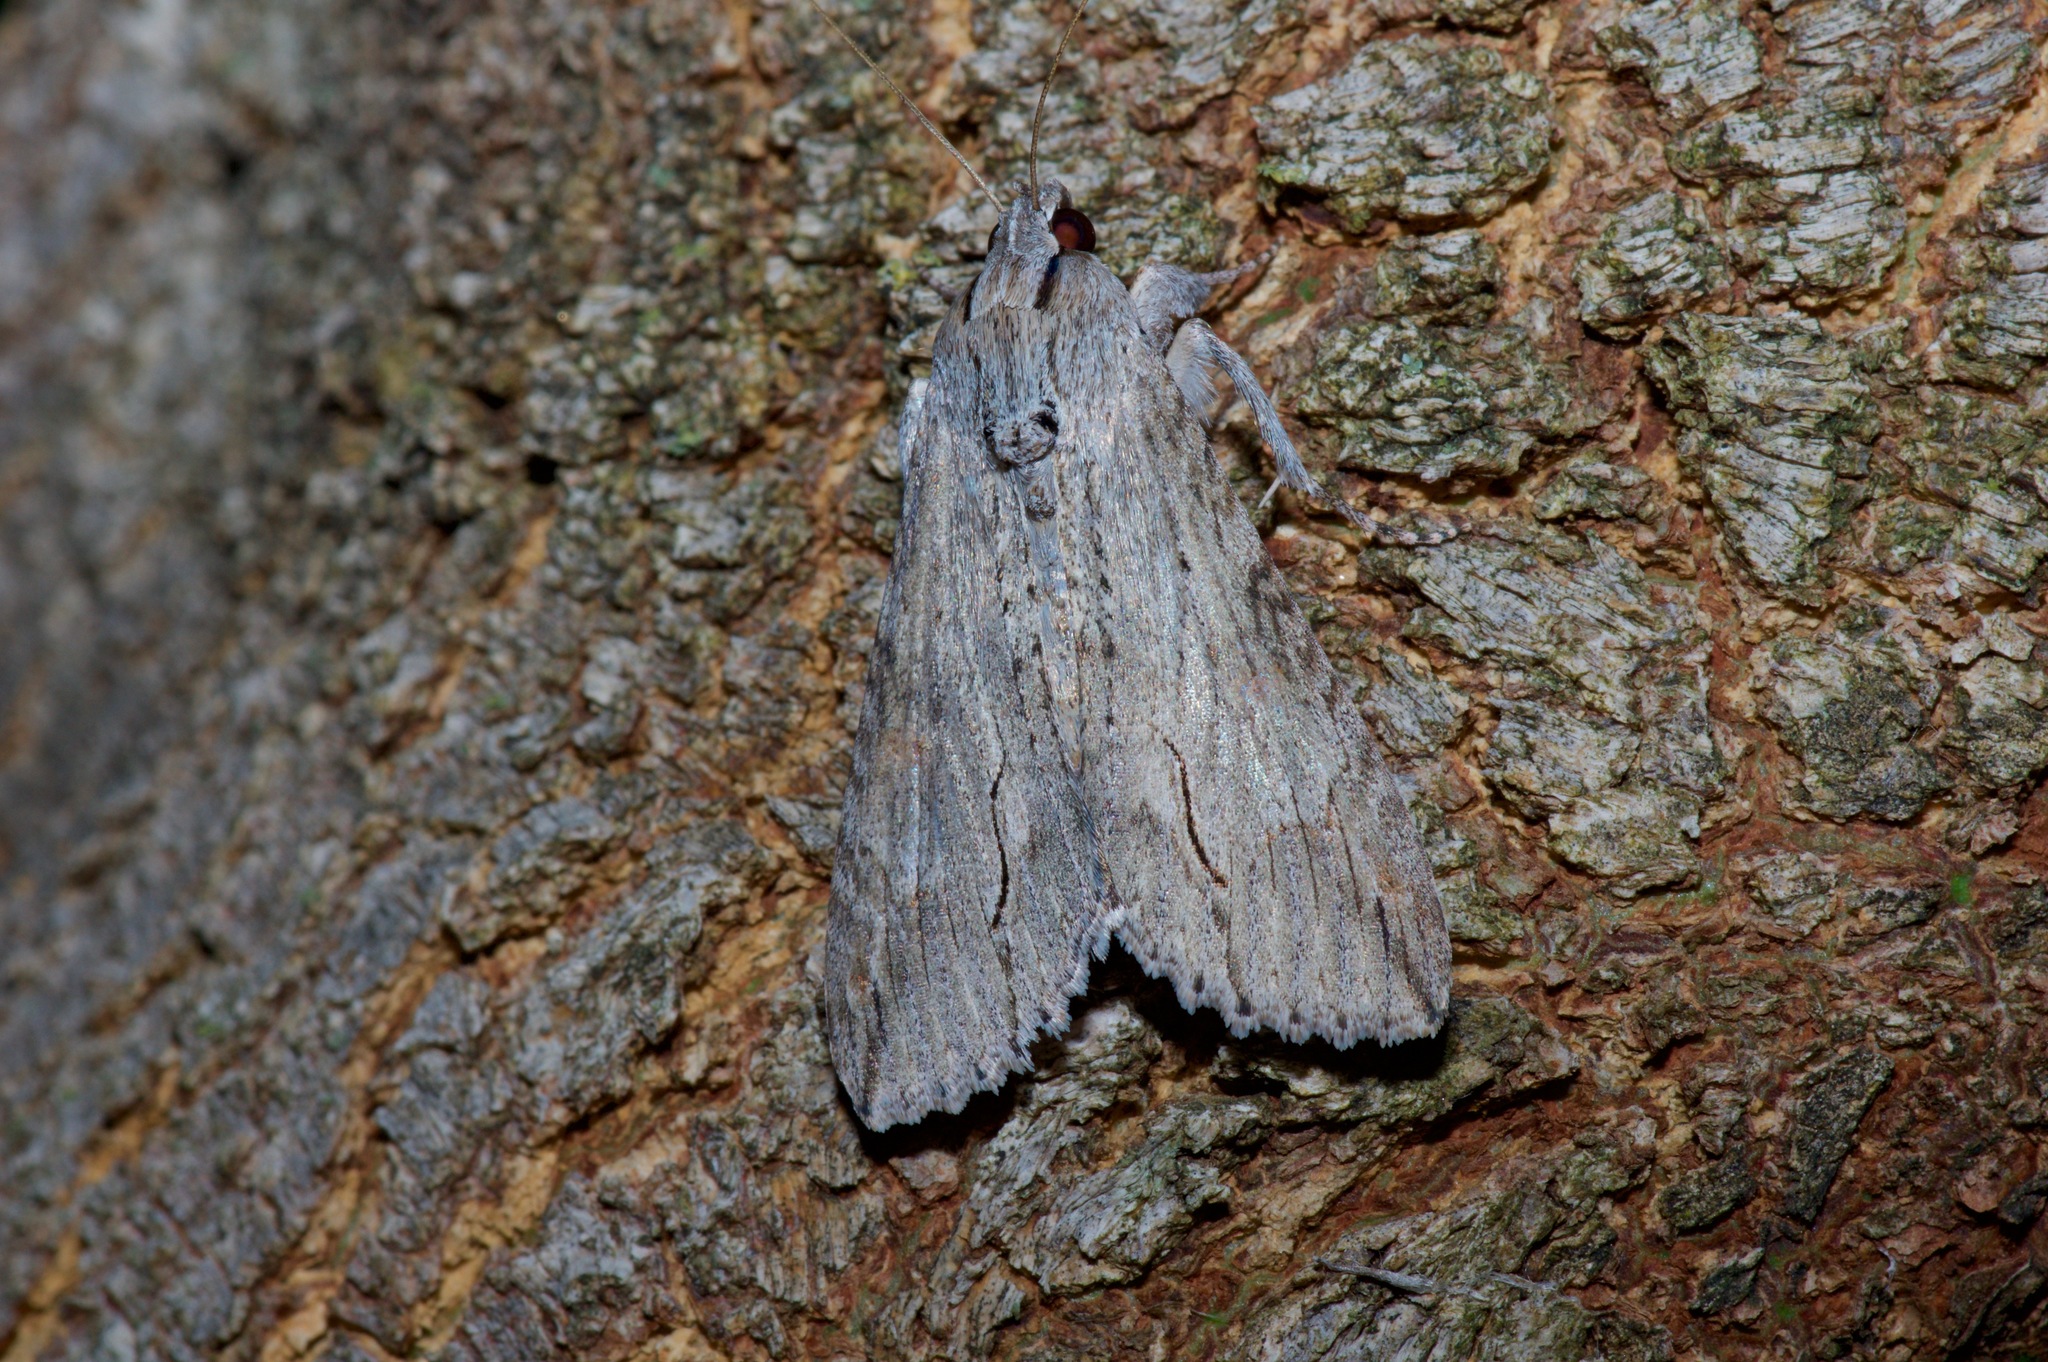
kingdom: Animalia
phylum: Arthropoda
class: Insecta
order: Lepidoptera
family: Erebidae
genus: Melipotis
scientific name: Melipotis acontioides
